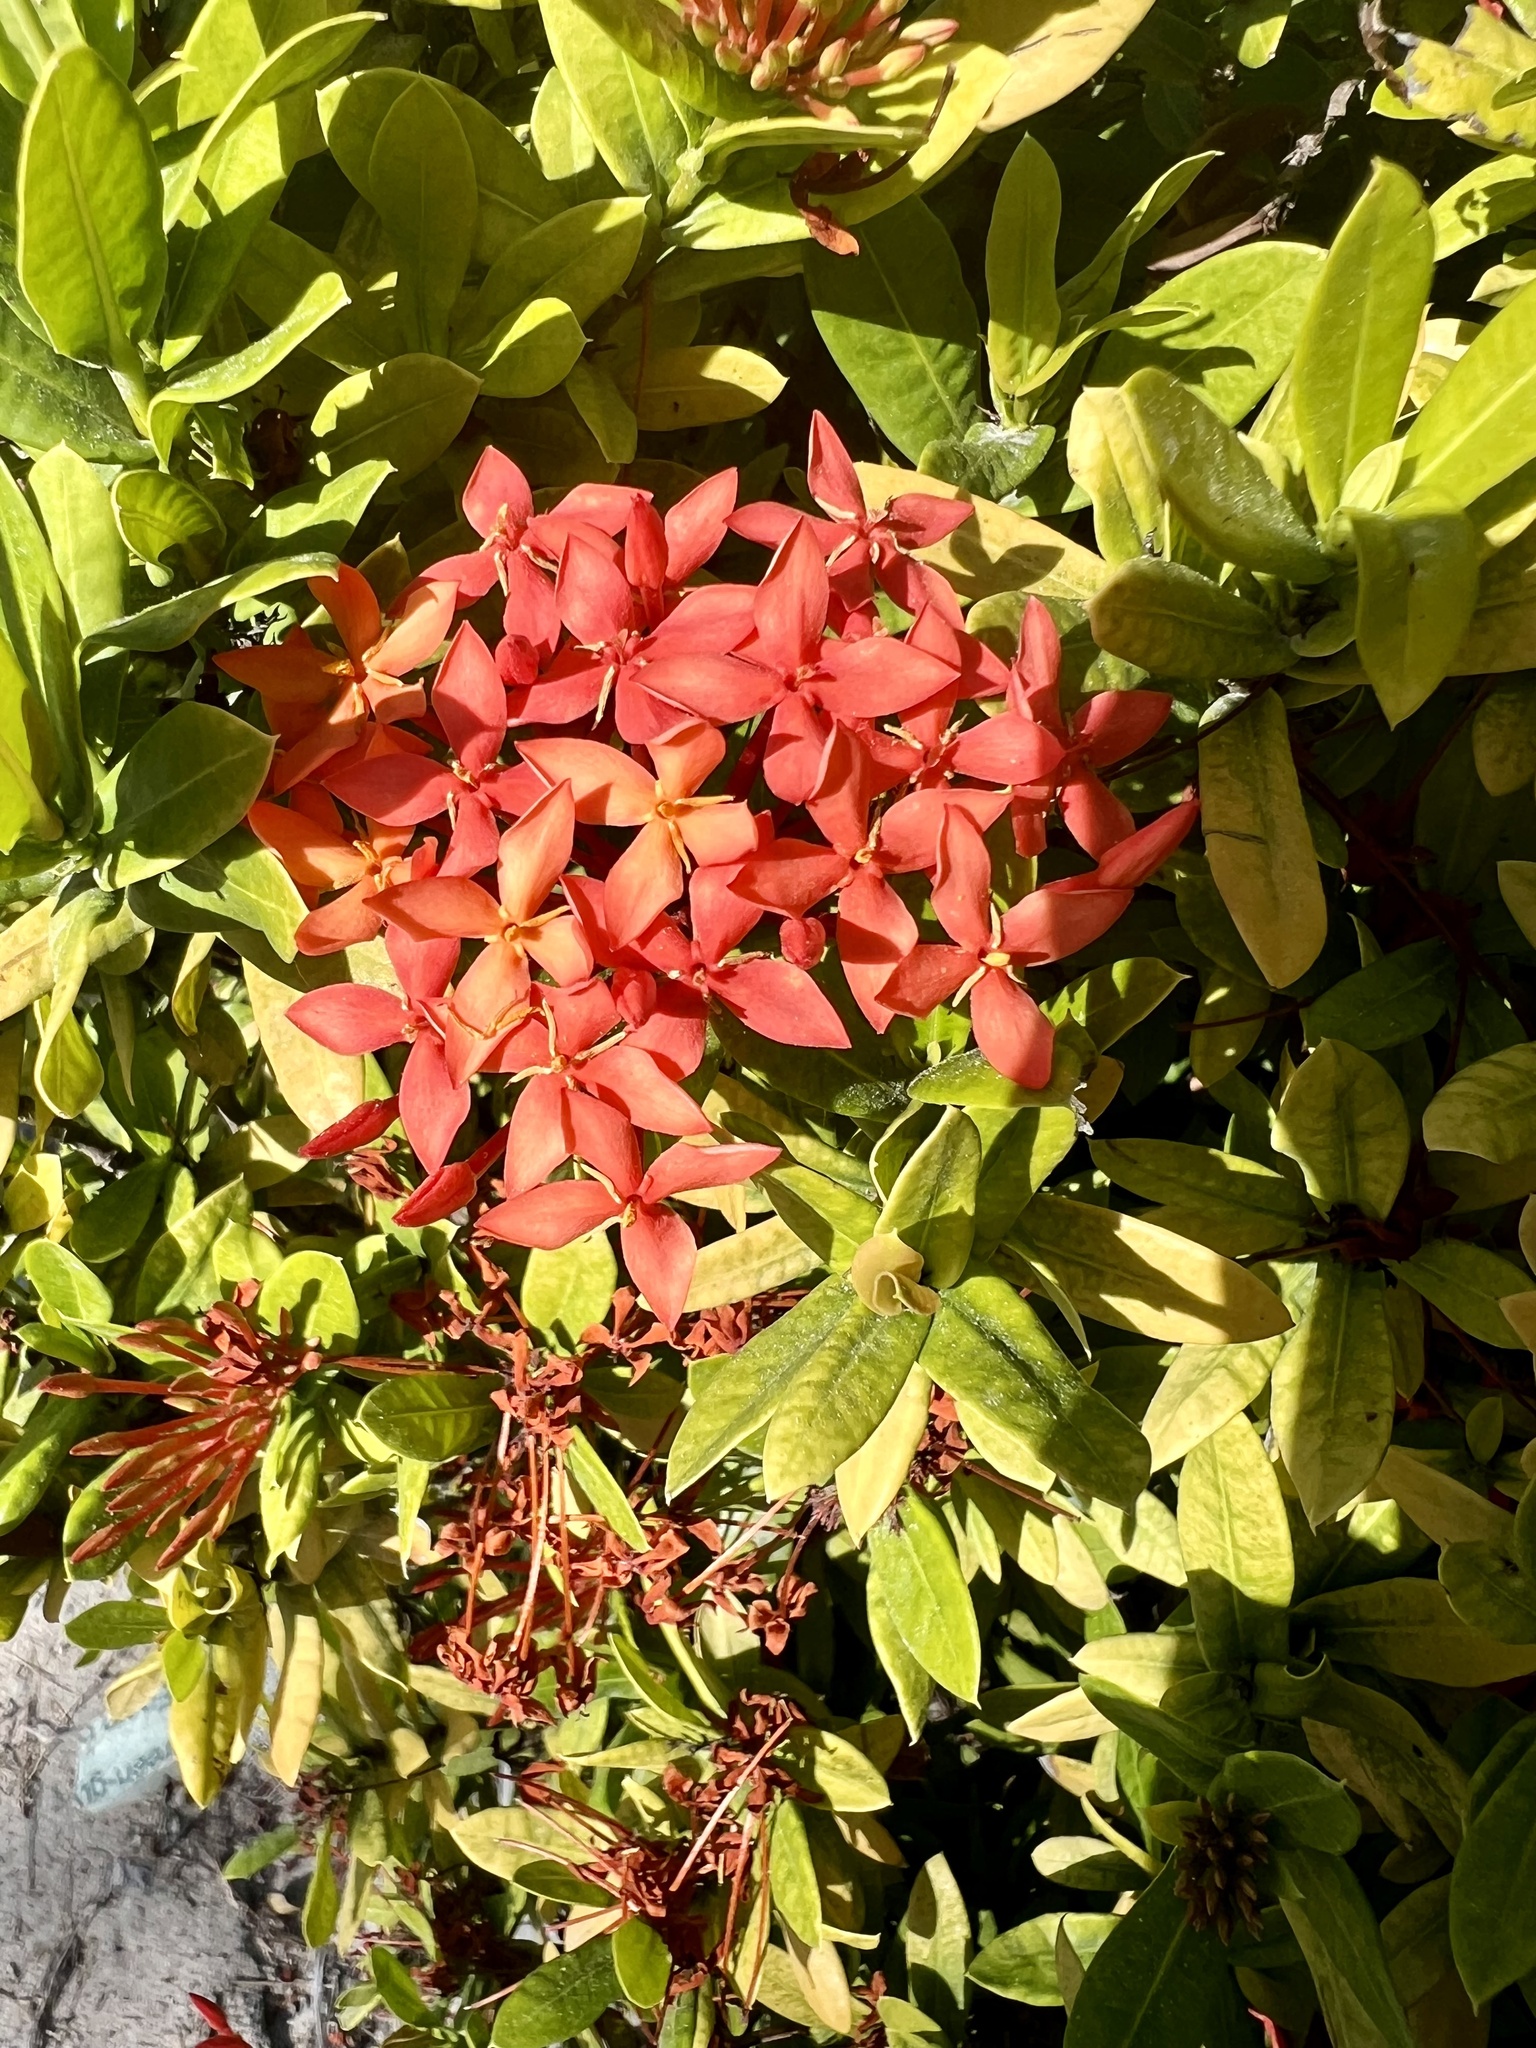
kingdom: Plantae
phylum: Tracheophyta
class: Magnoliopsida
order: Gentianales
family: Rubiaceae
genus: Ixora
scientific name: Ixora coccinea
